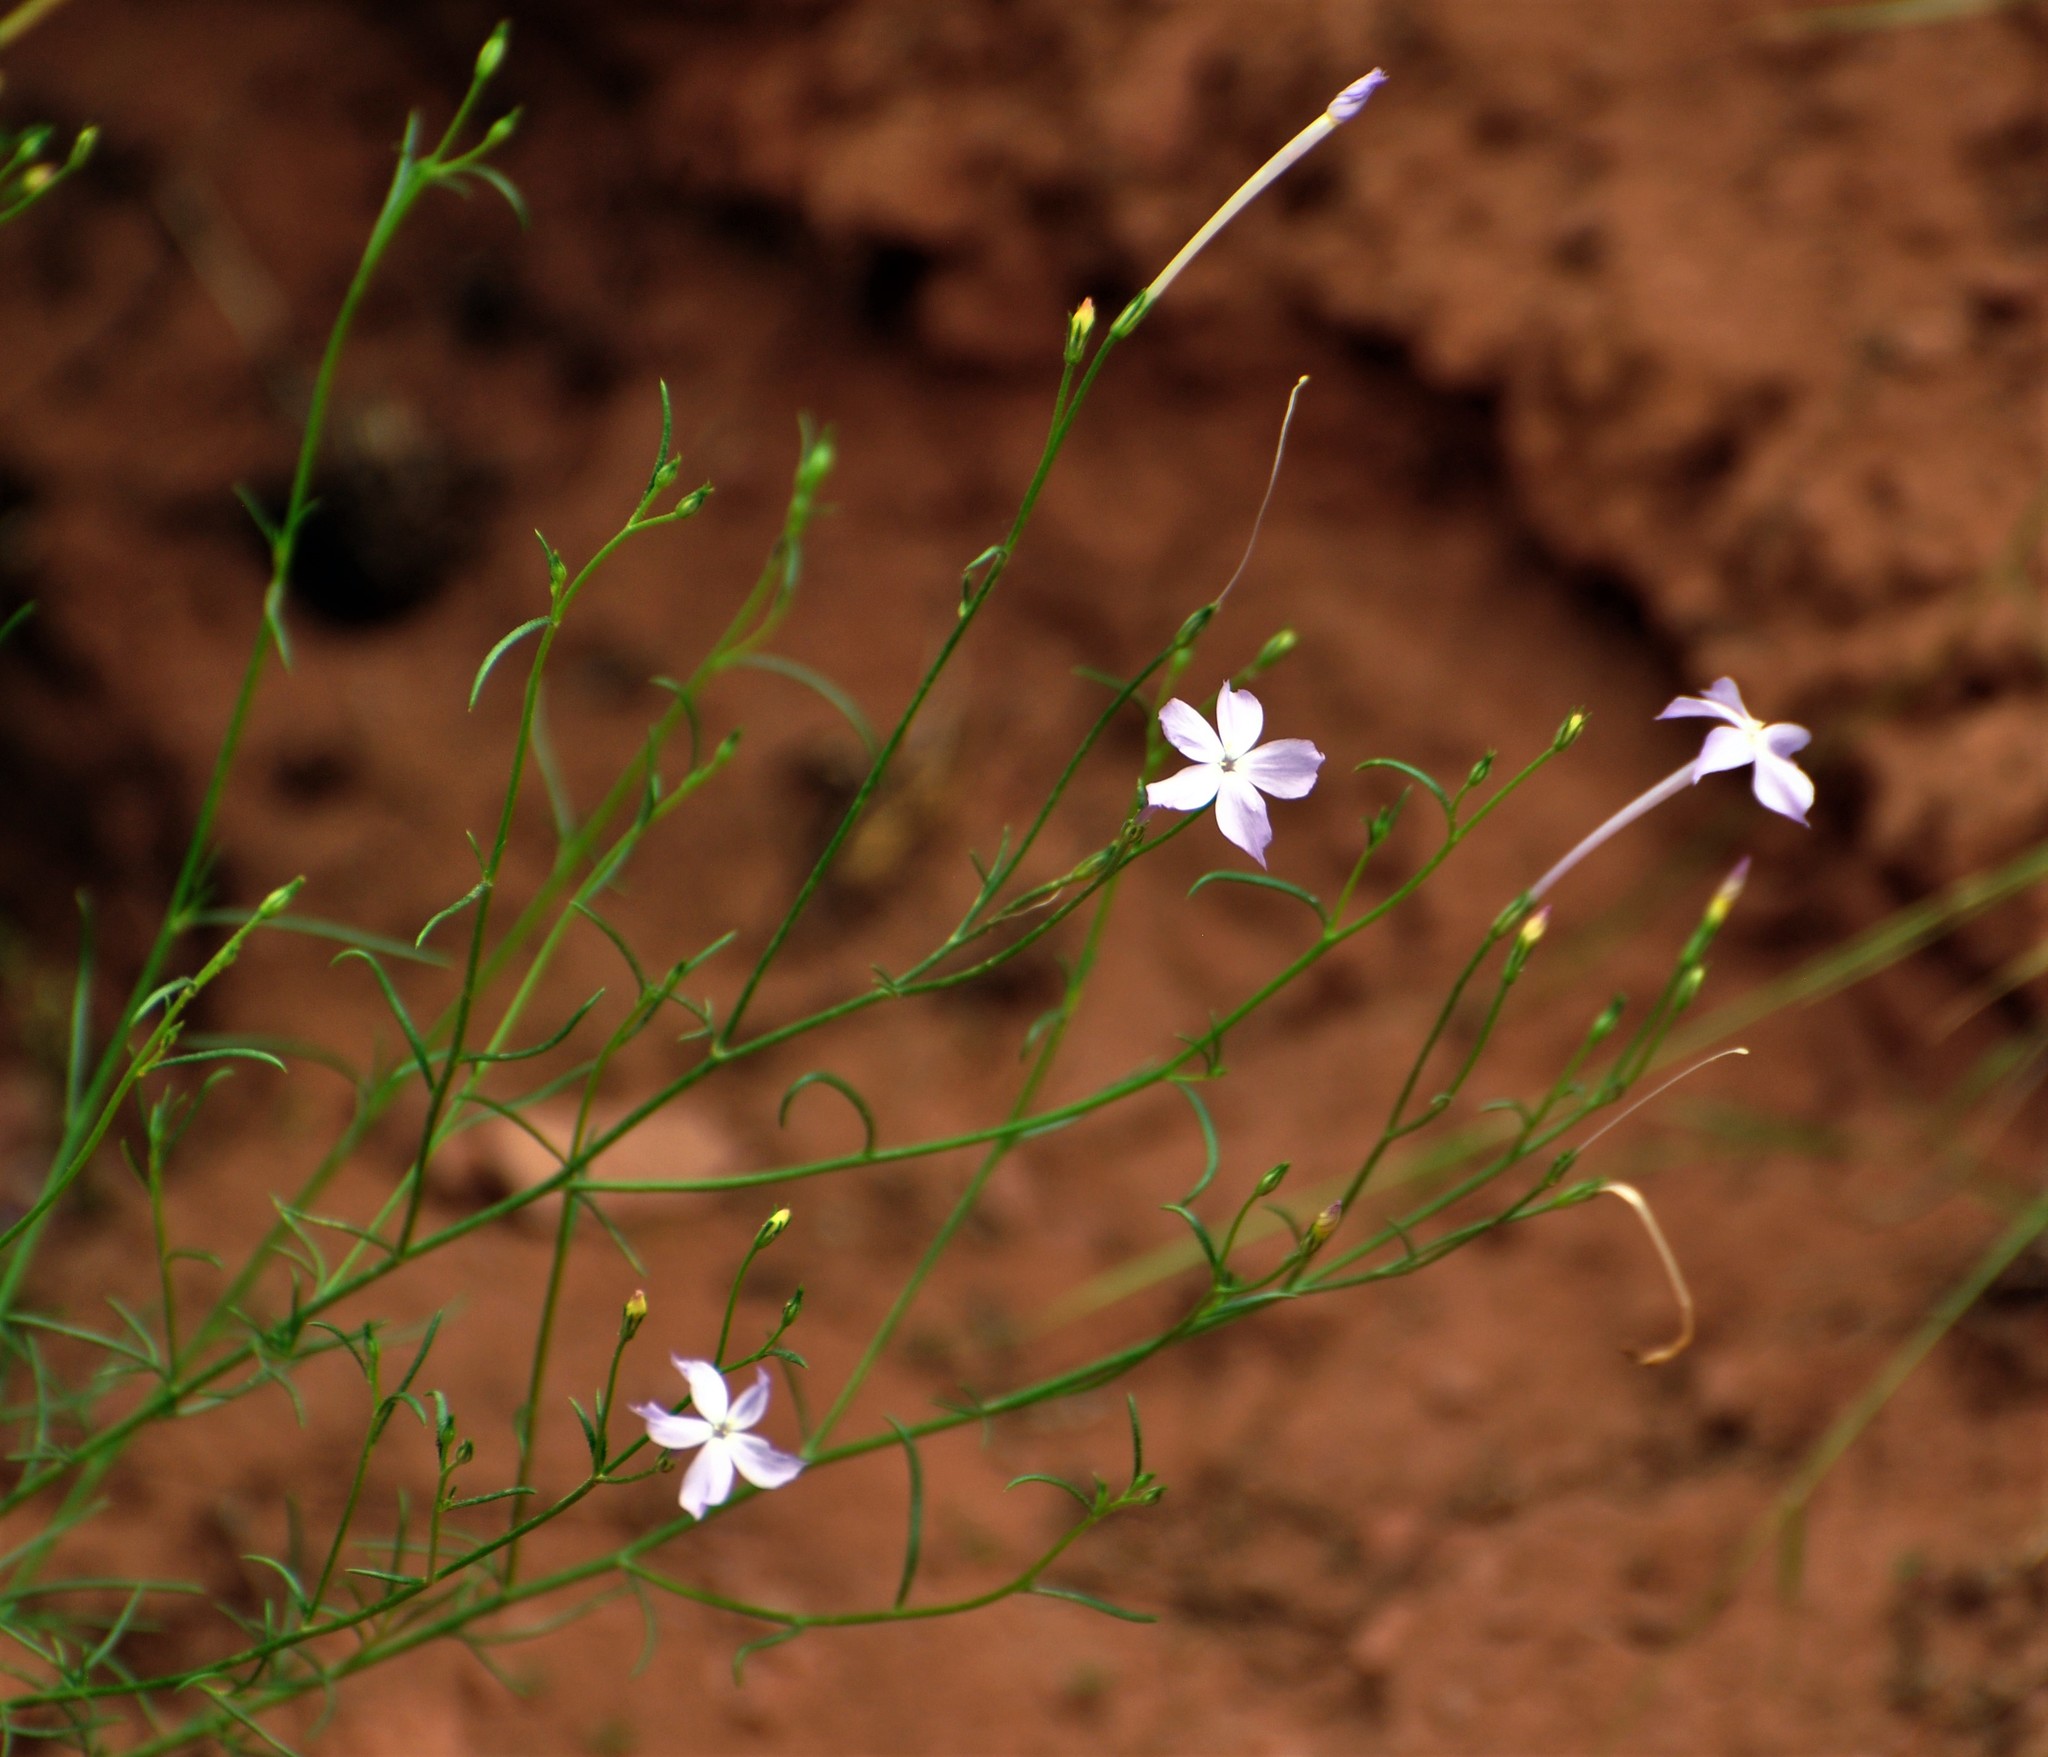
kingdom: Plantae
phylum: Tracheophyta
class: Magnoliopsida
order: Ericales
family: Polemoniaceae
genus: Ipomopsis
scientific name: Ipomopsis longiflora
